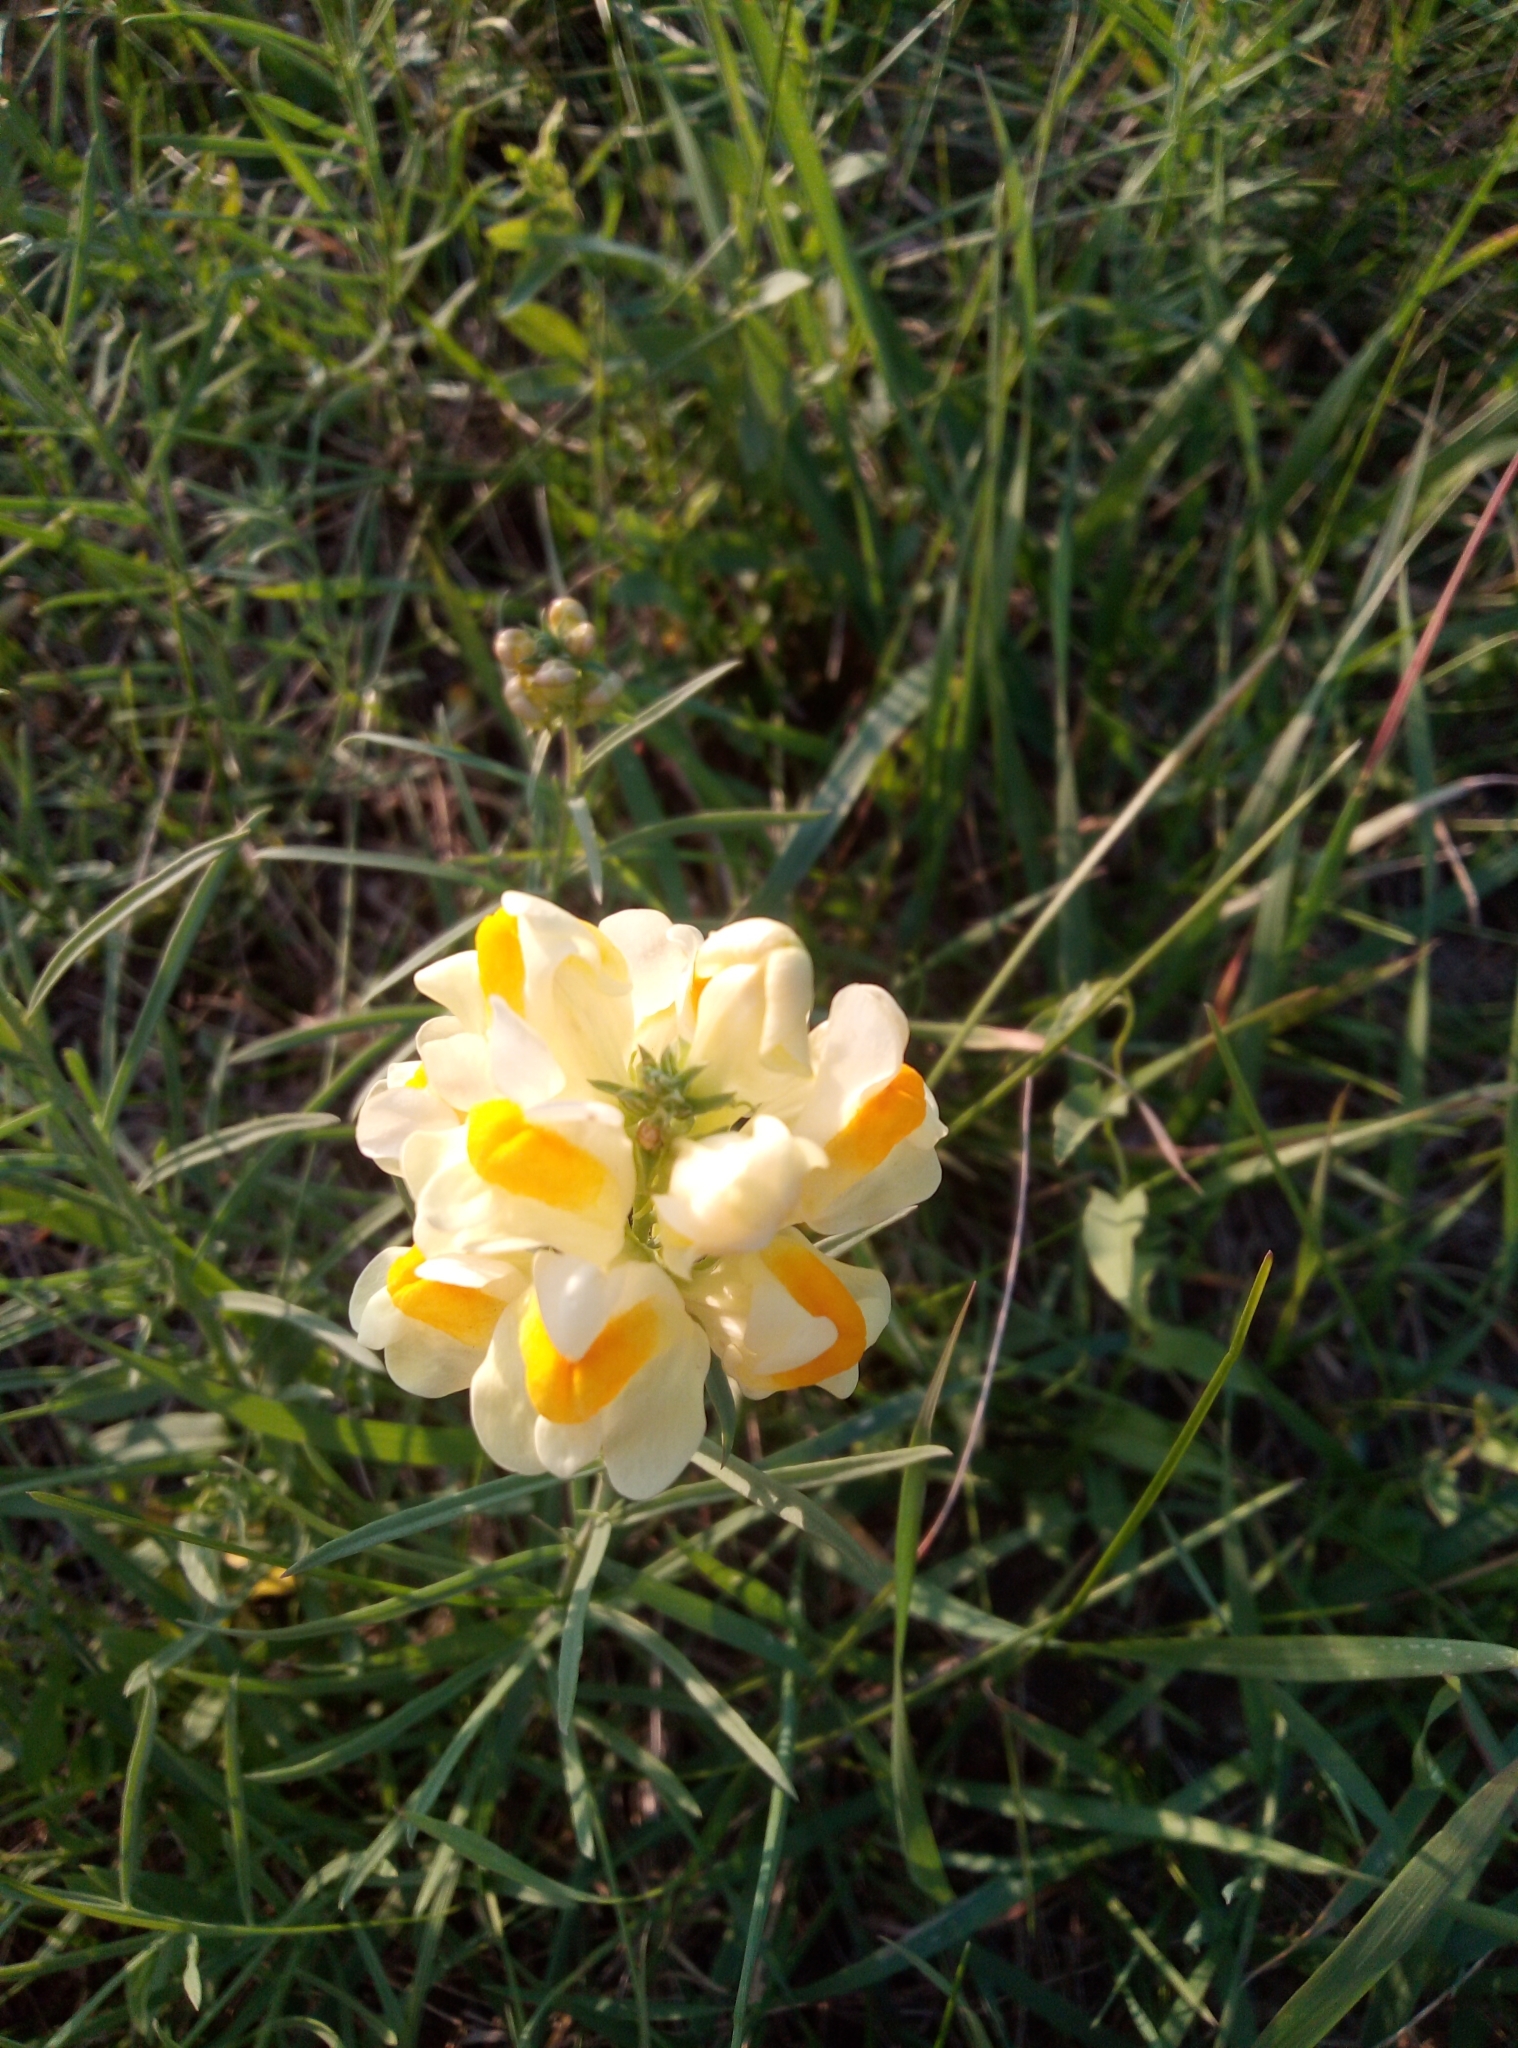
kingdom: Plantae
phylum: Tracheophyta
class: Magnoliopsida
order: Lamiales
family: Plantaginaceae
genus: Linaria
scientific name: Linaria vulgaris
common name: Butter and eggs
